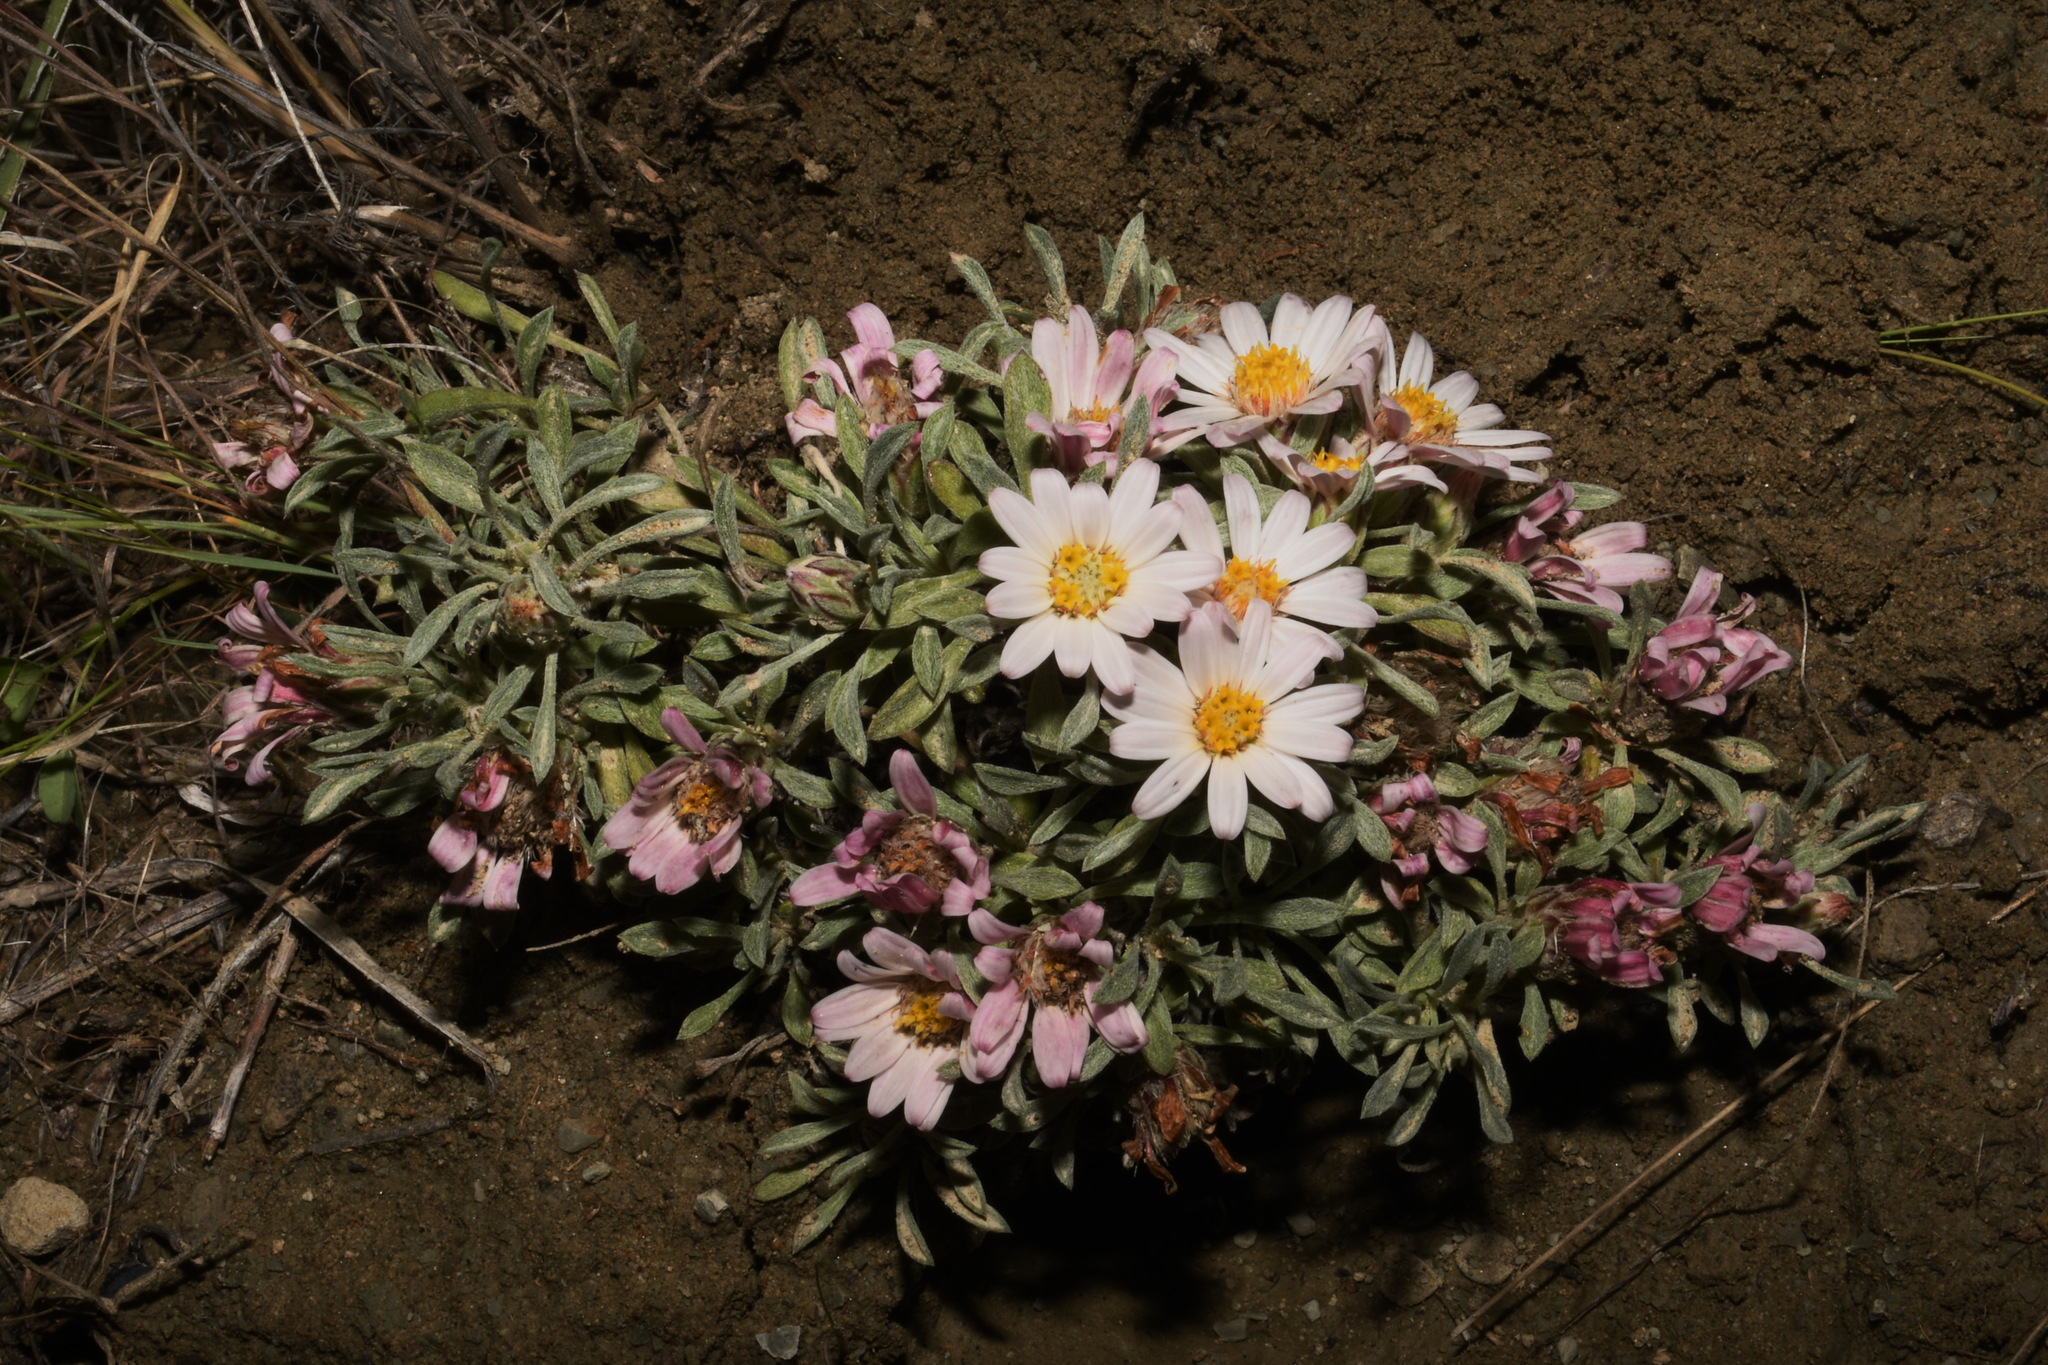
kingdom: Plantae
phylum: Tracheophyta
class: Magnoliopsida
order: Asterales
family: Asteraceae
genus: Townsendia
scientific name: Townsendia incana
